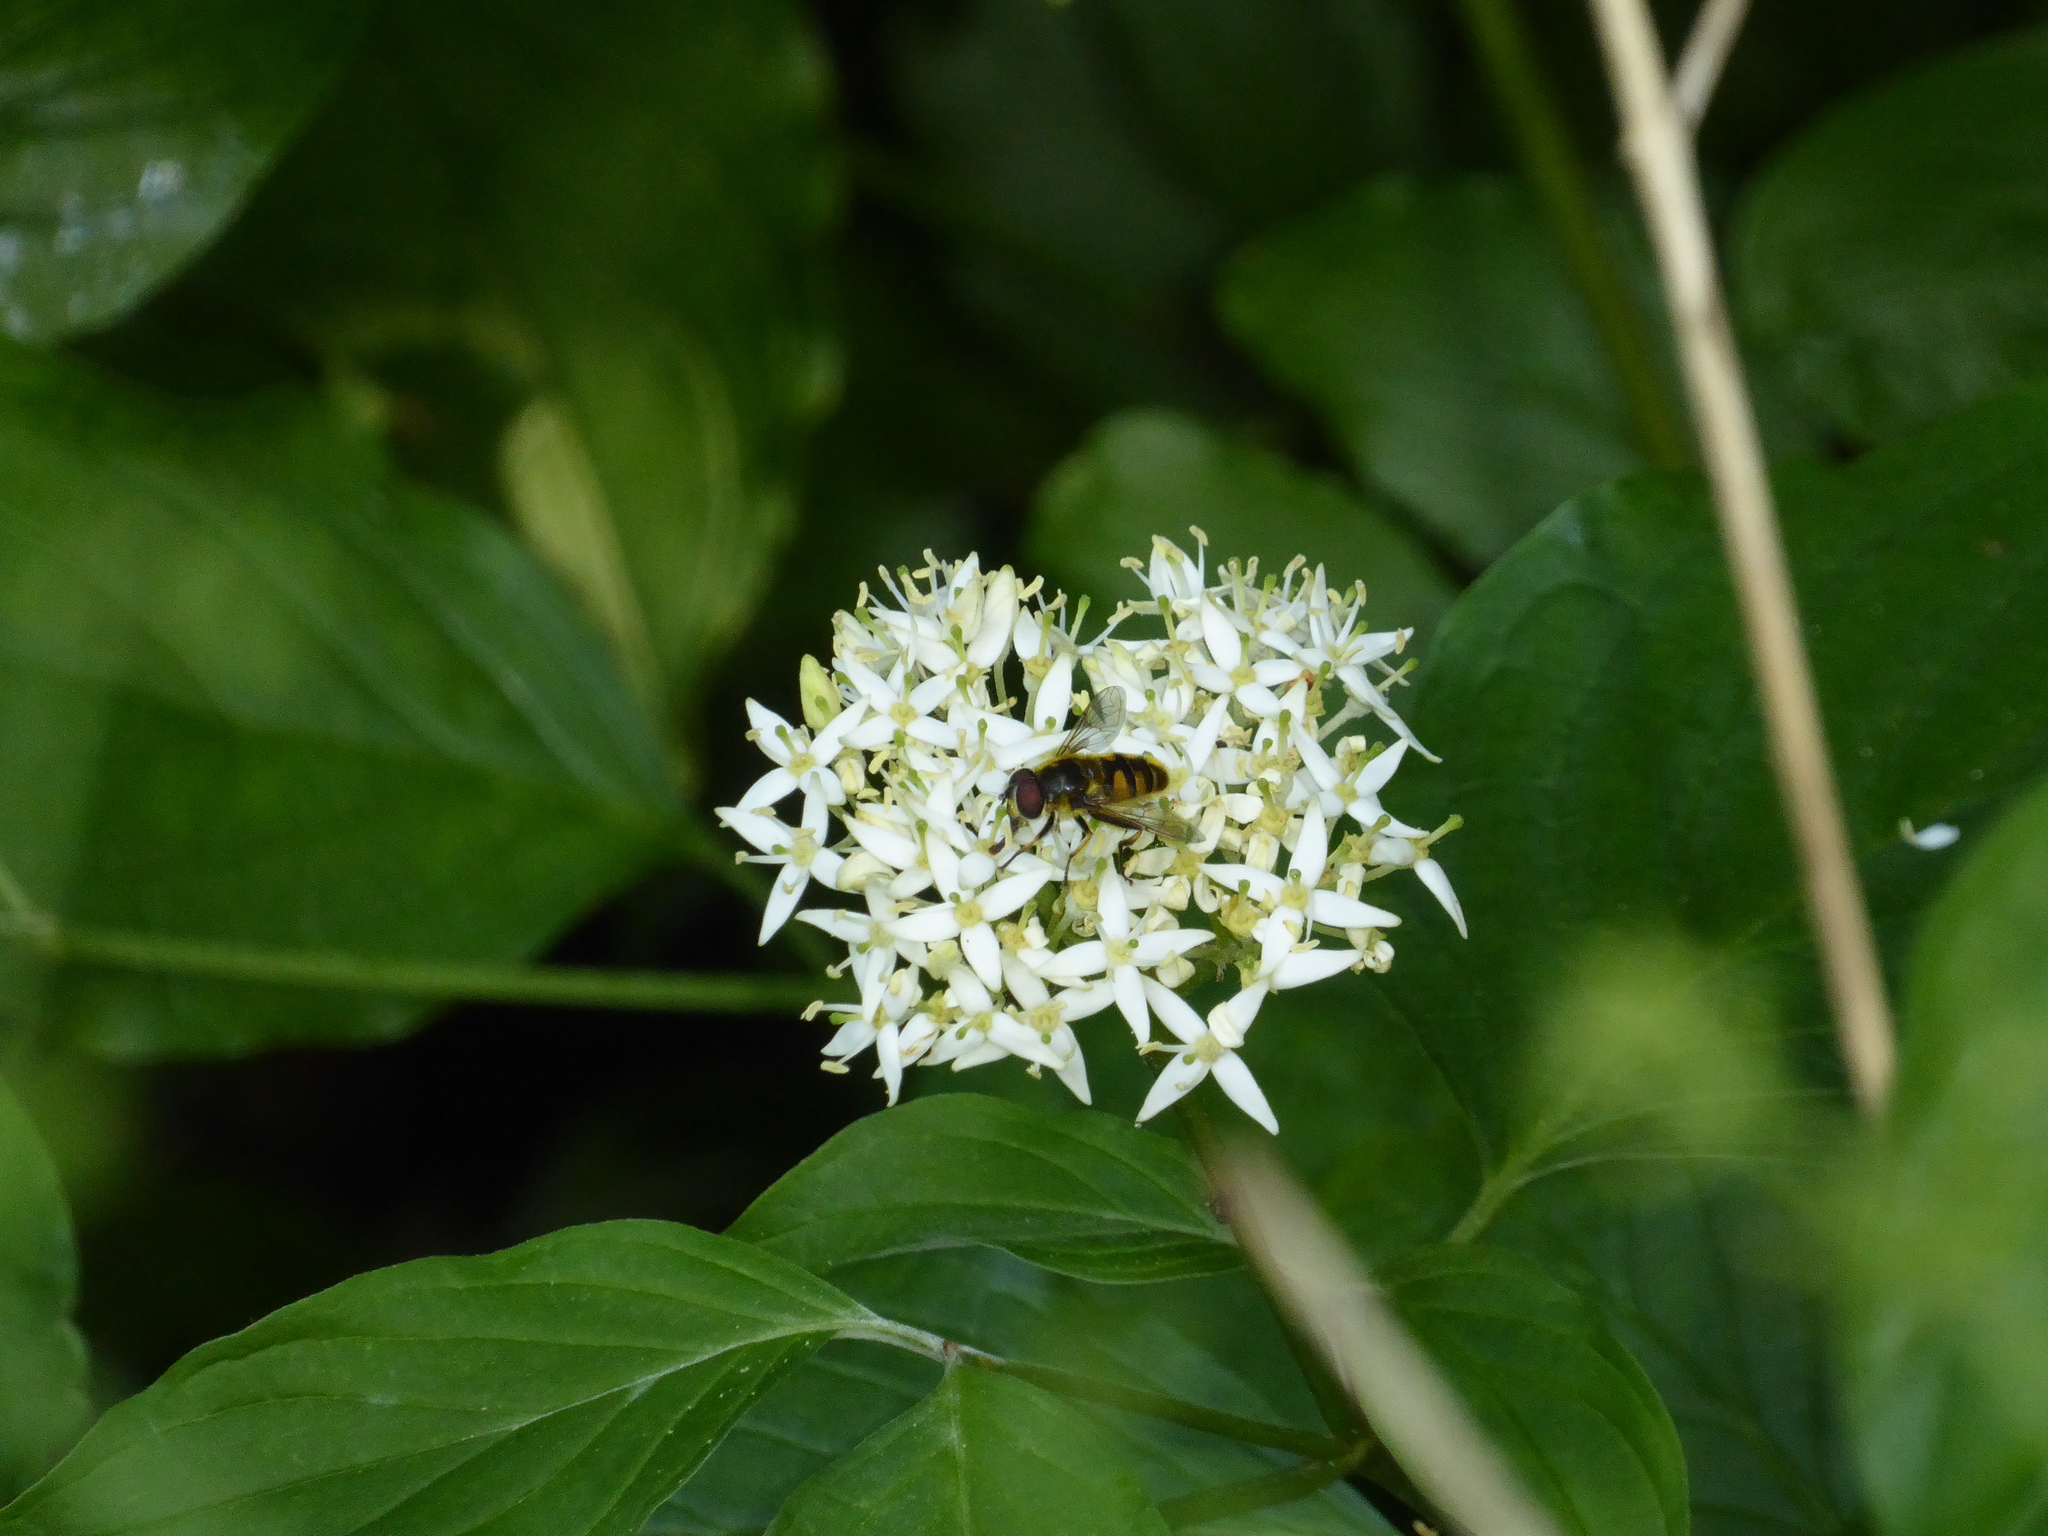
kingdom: Plantae
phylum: Tracheophyta
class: Magnoliopsida
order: Cornales
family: Cornaceae
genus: Cornus
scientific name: Cornus sanguinea
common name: Dogwood
